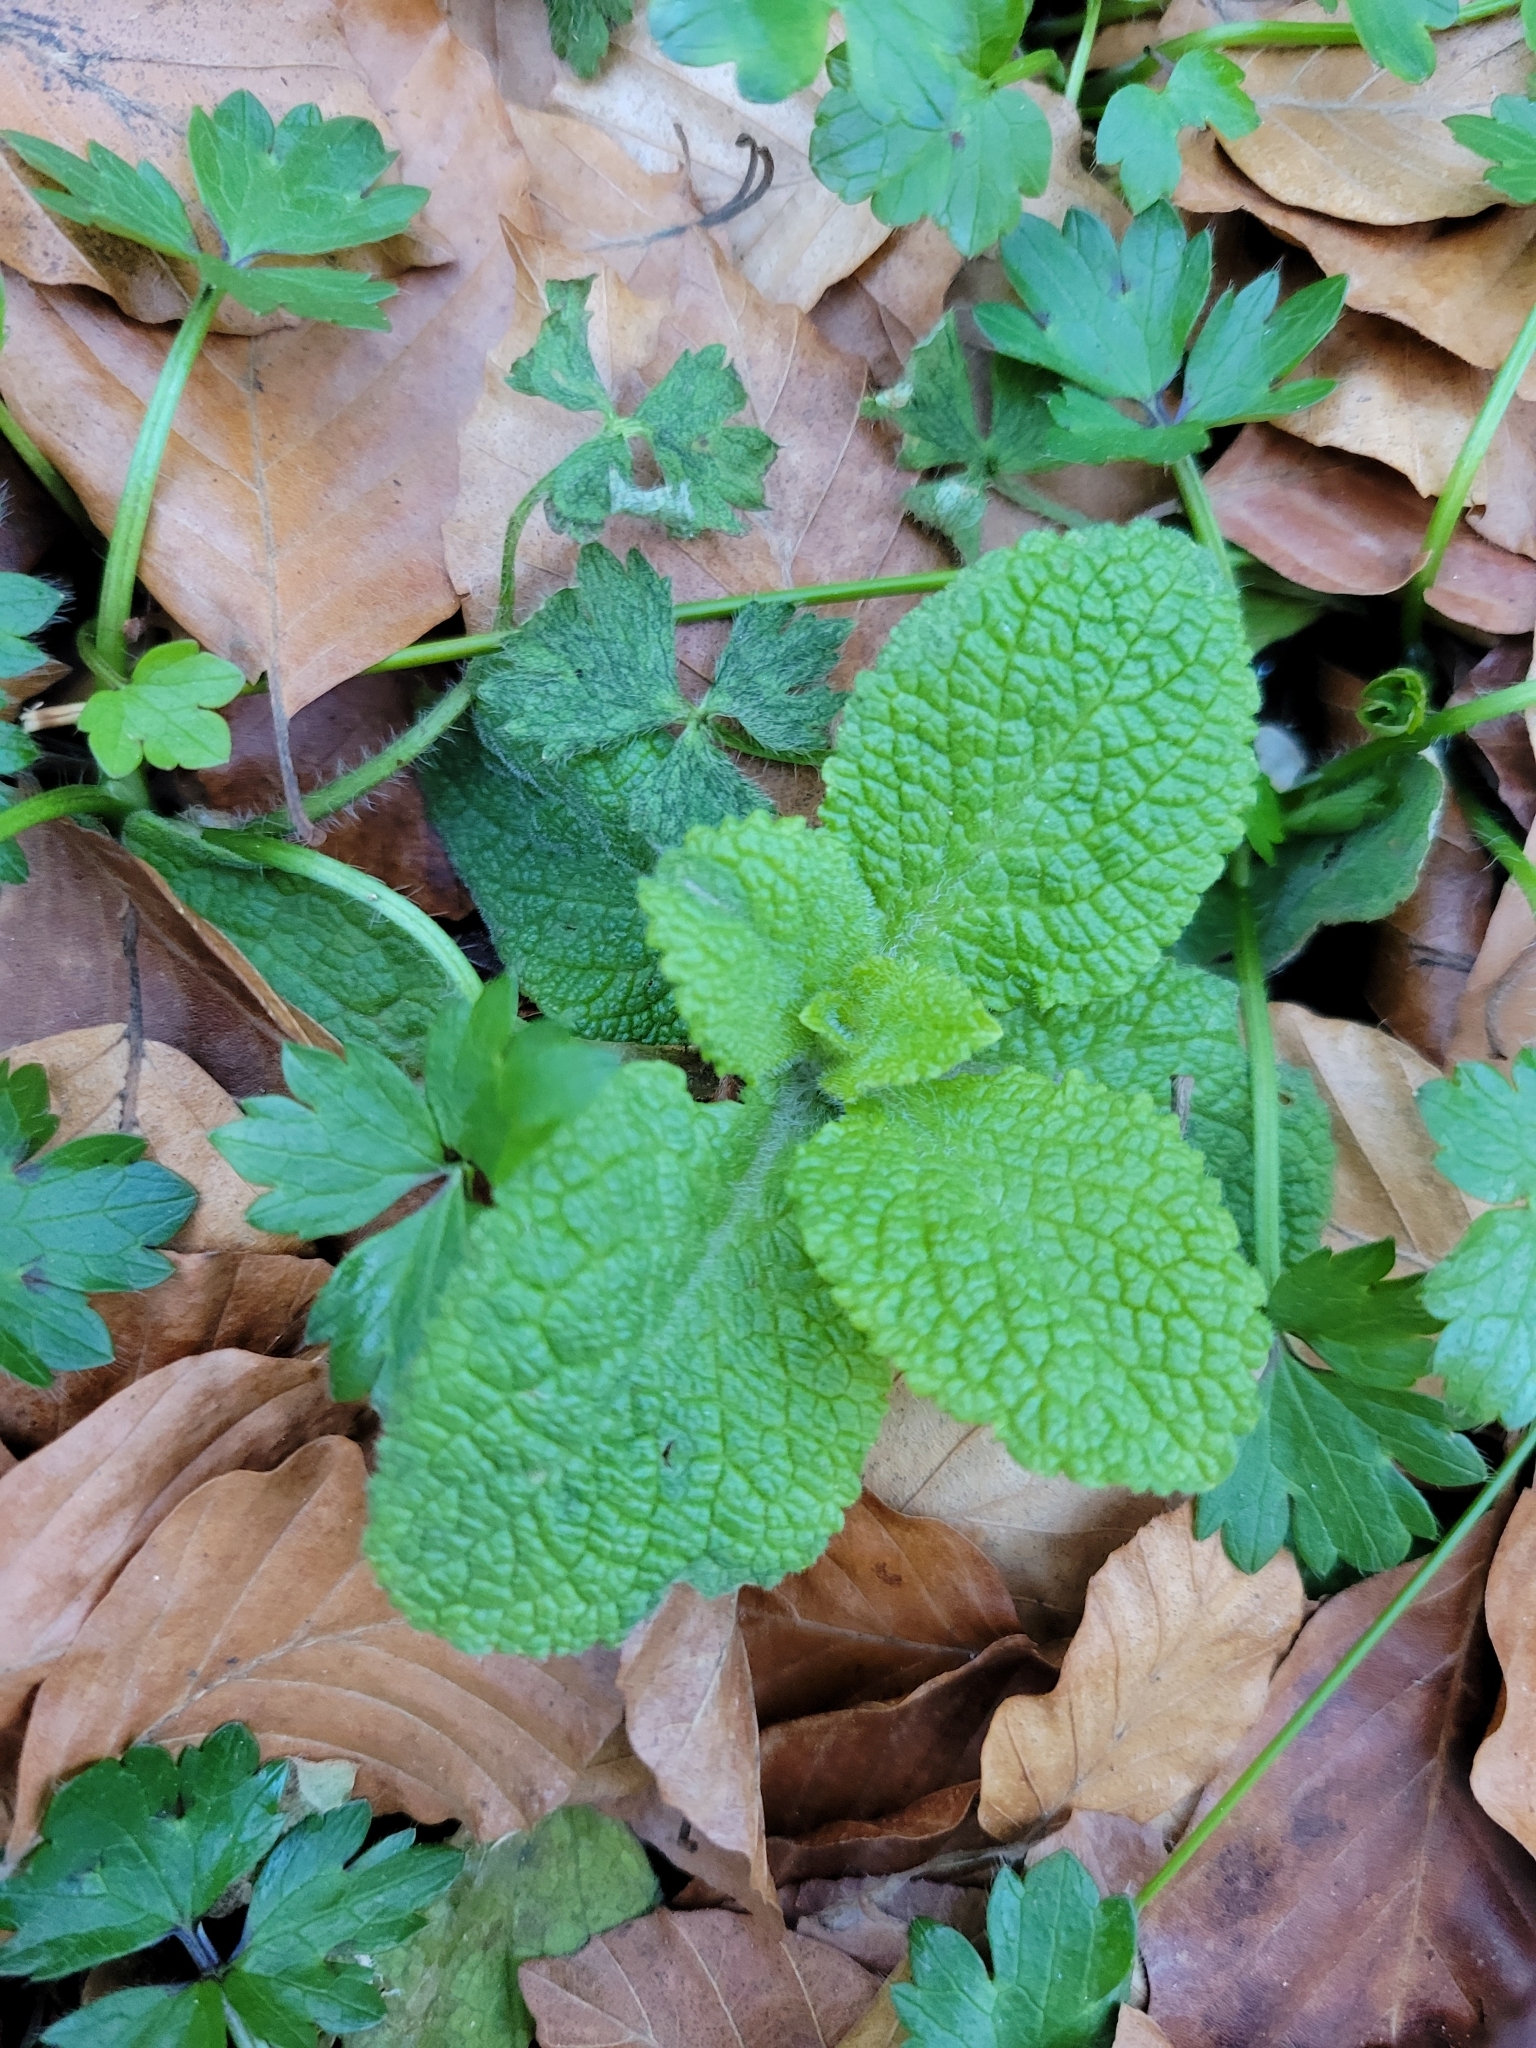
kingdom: Plantae
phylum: Tracheophyta
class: Magnoliopsida
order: Lamiales
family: Lamiaceae
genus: Melissa
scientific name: Melissa officinalis
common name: Balm
